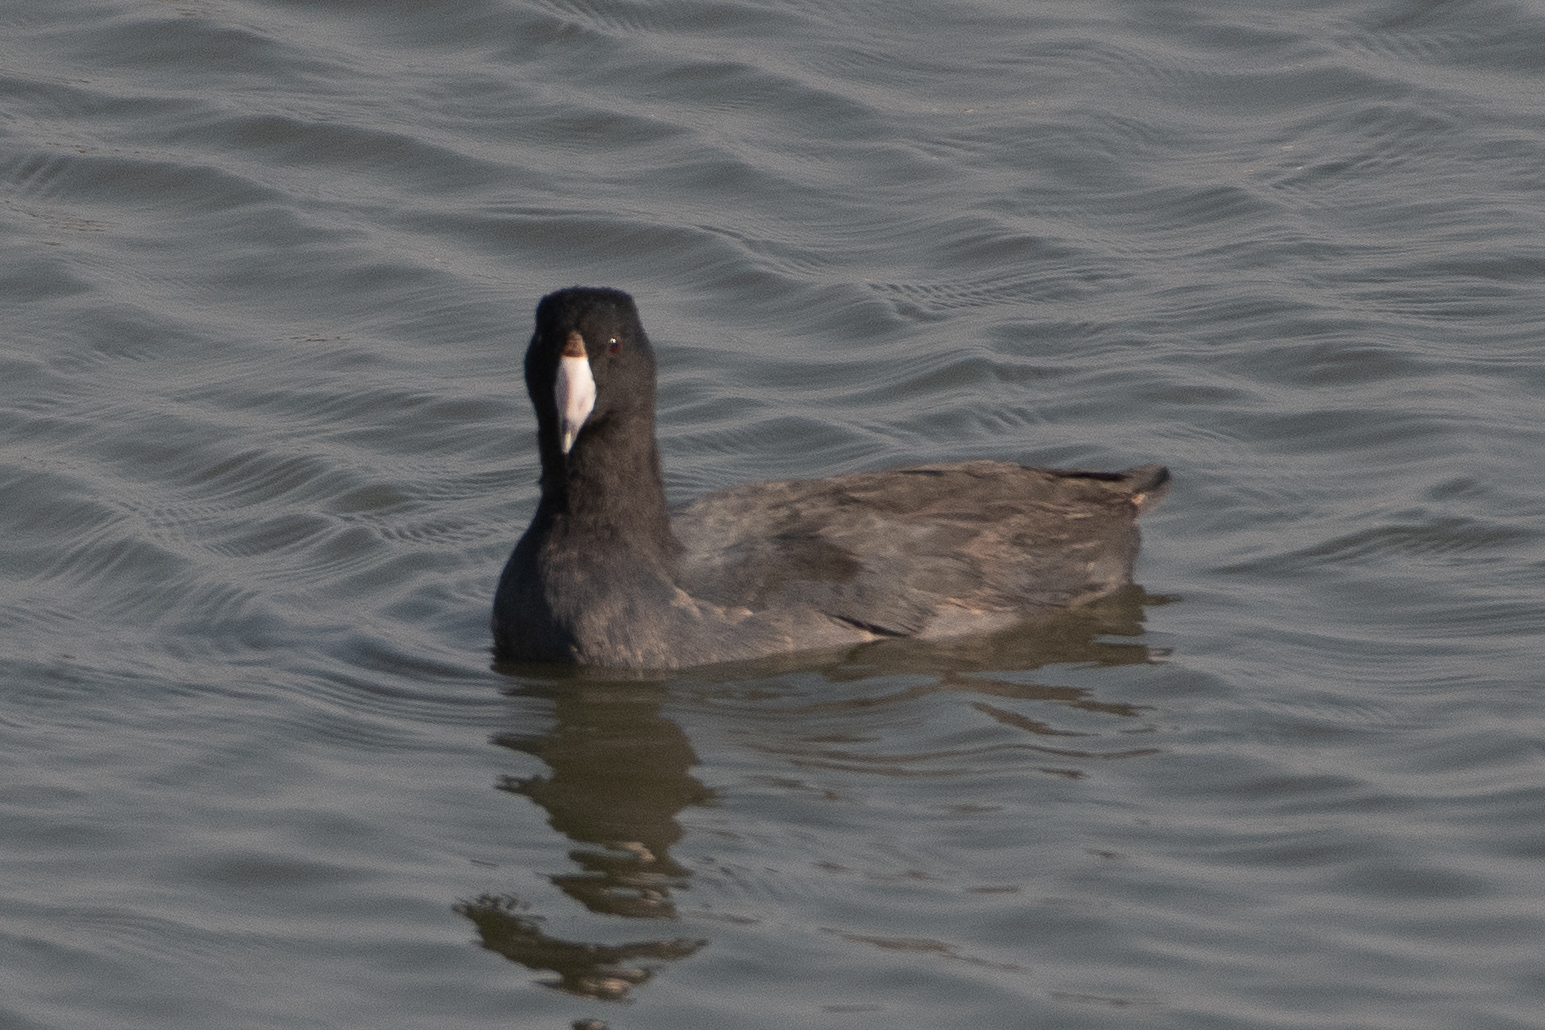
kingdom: Animalia
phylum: Chordata
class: Aves
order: Gruiformes
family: Rallidae
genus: Fulica
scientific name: Fulica americana
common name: American coot
